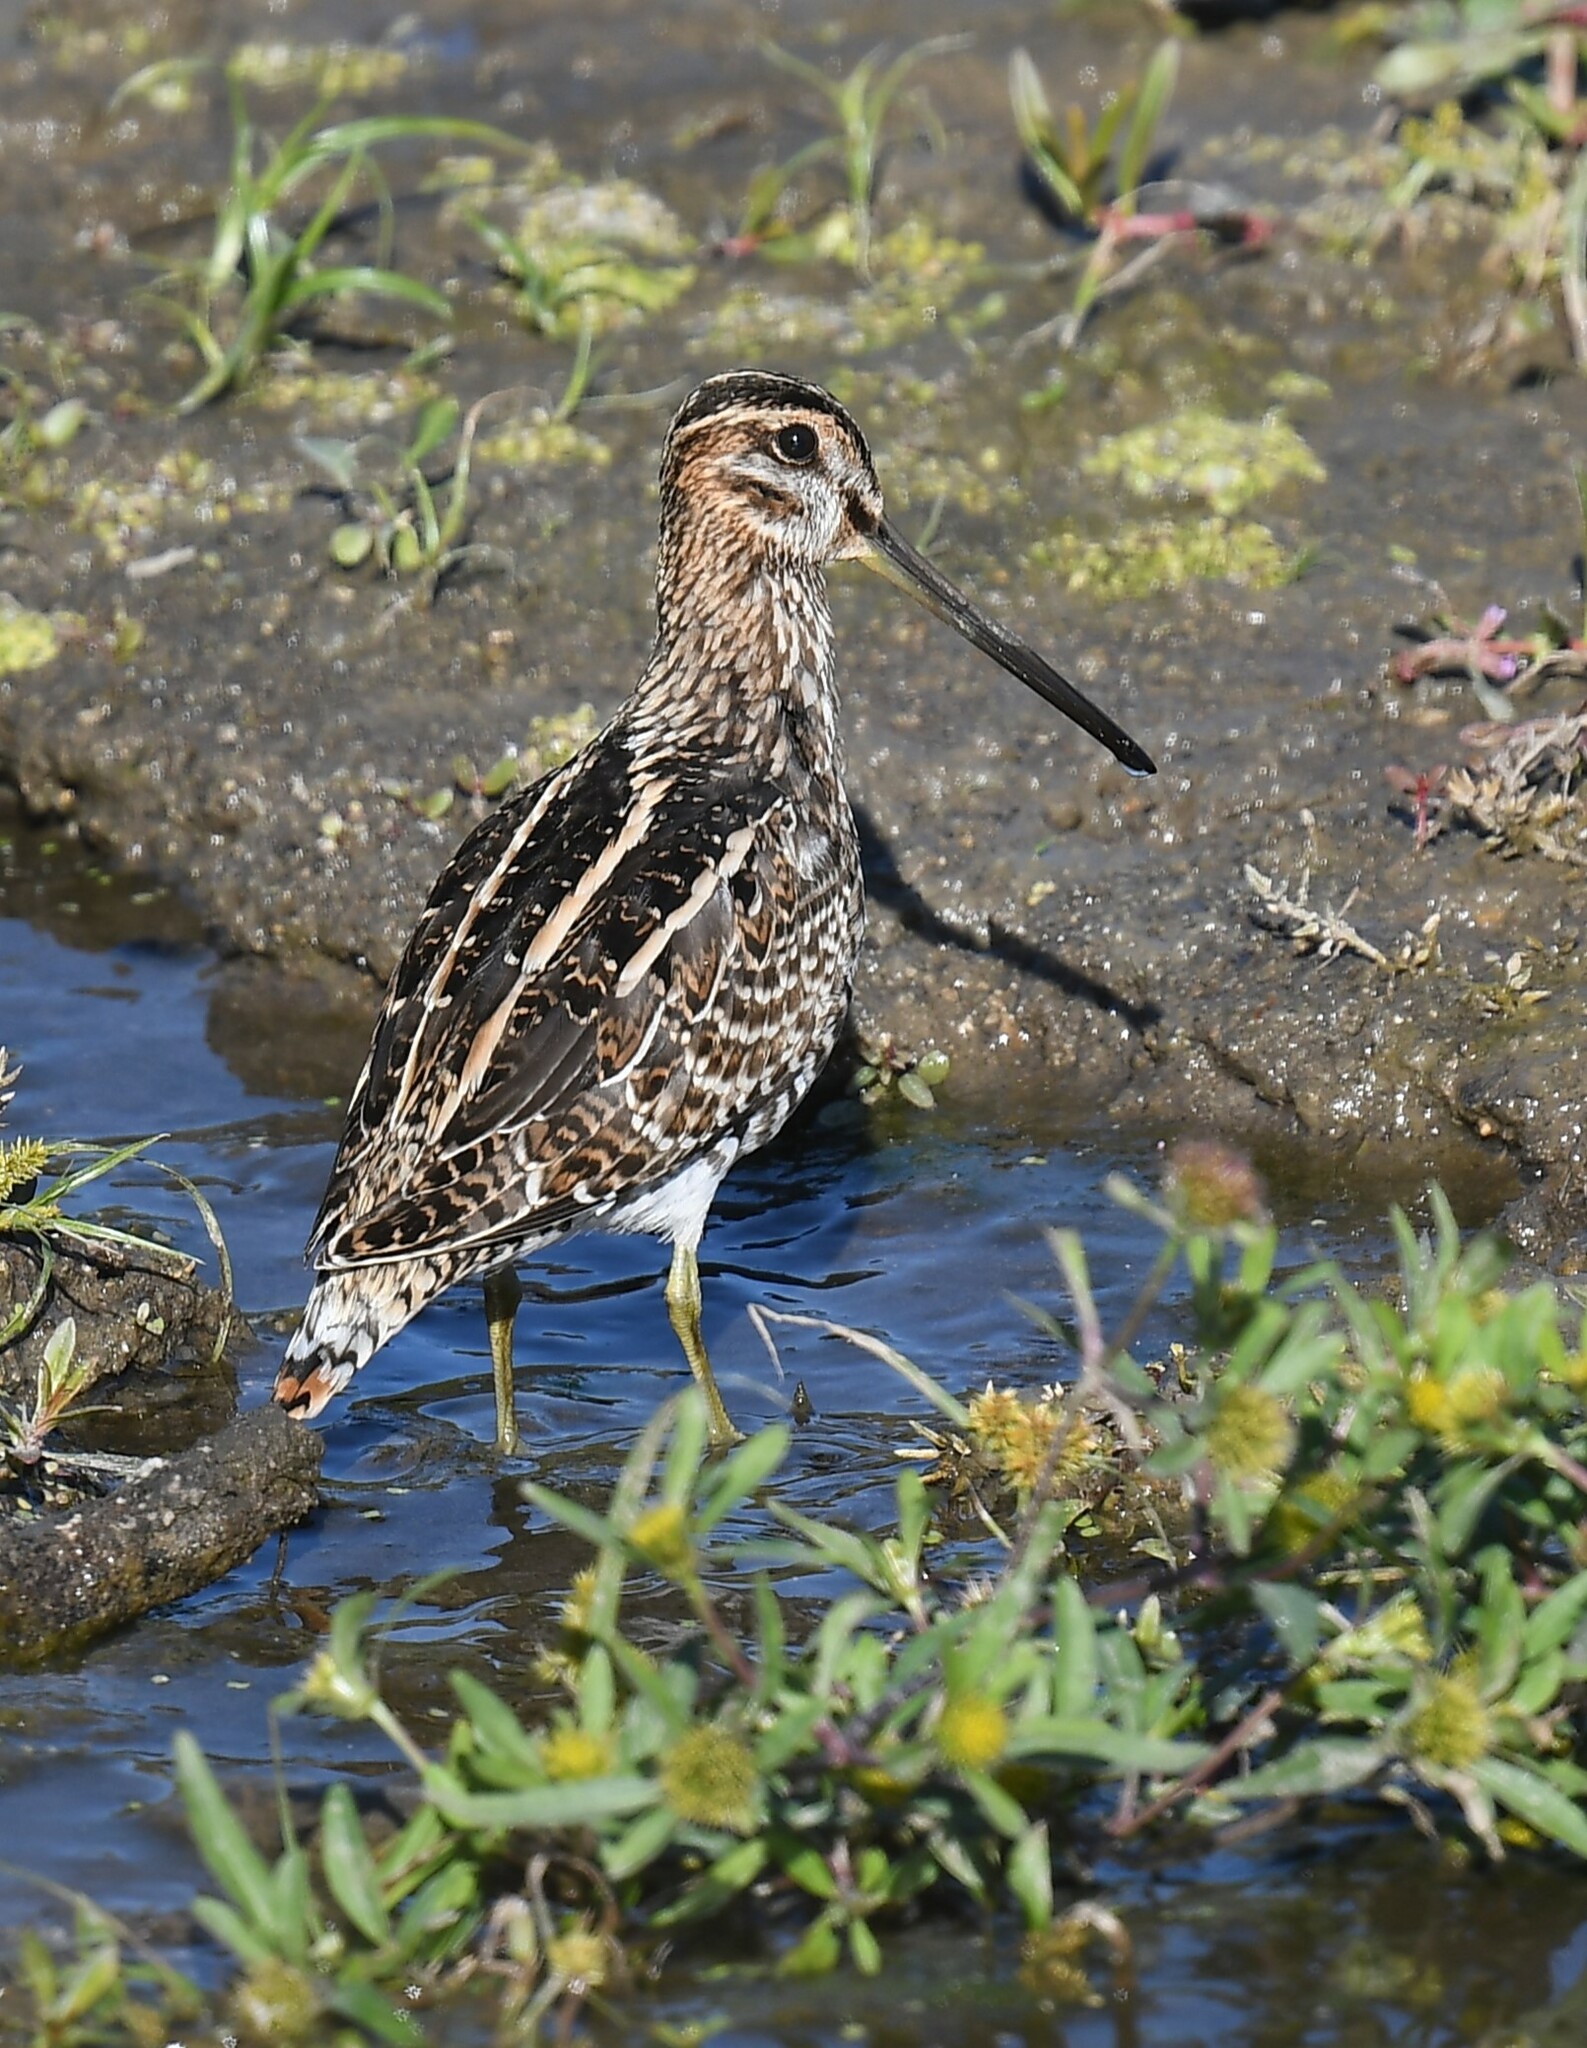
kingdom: Animalia
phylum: Chordata
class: Aves
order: Charadriiformes
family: Scolopacidae
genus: Gallinago
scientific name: Gallinago delicata
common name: Wilson's snipe
